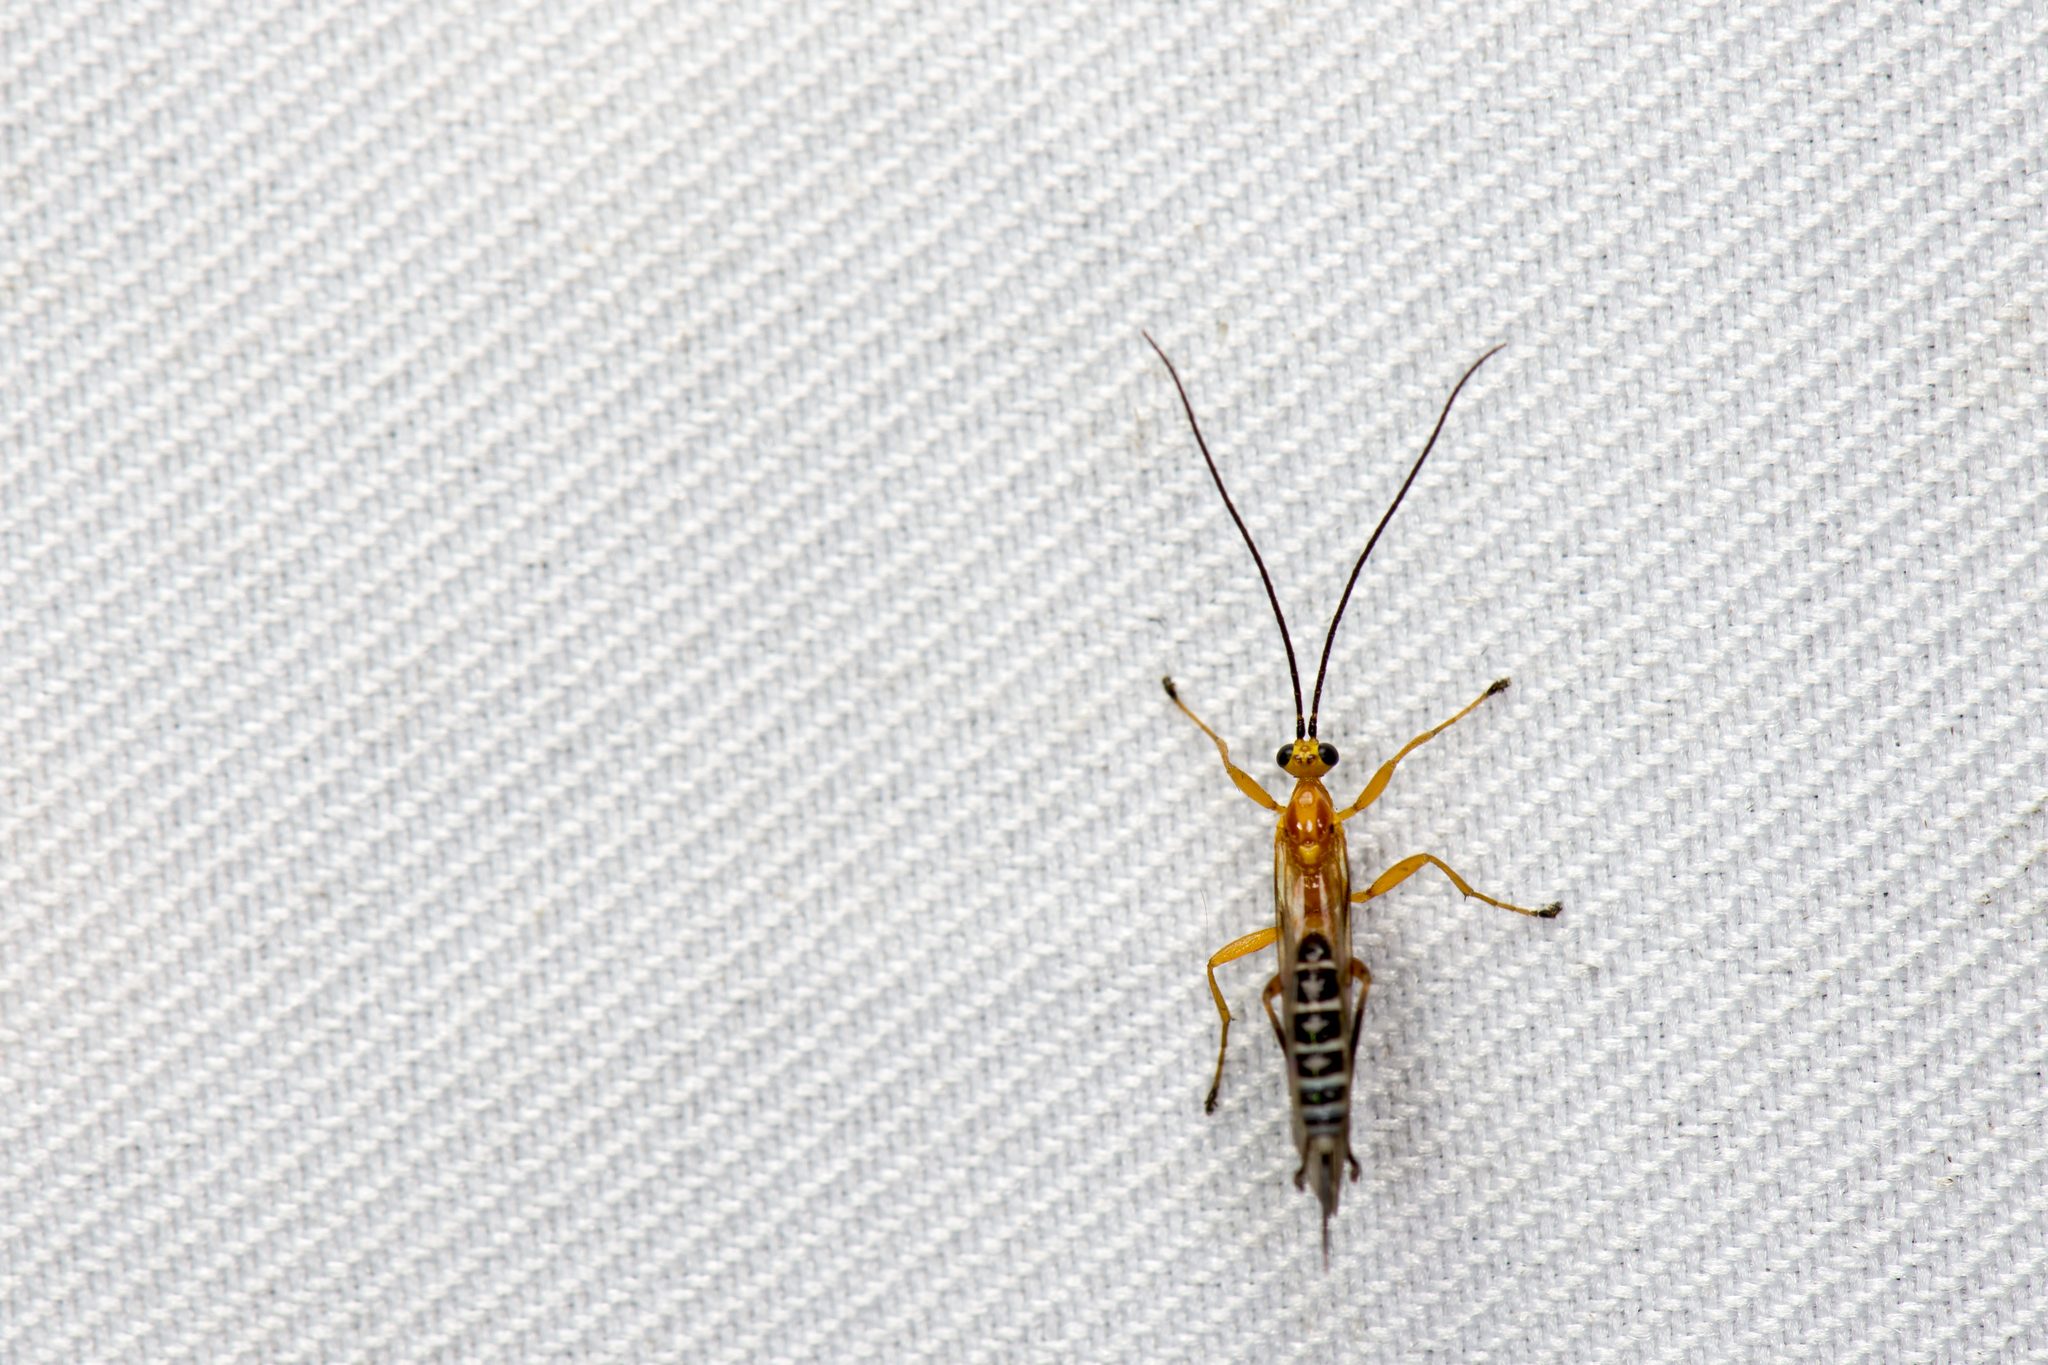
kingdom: Animalia
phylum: Arthropoda
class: Insecta
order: Hymenoptera
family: Ichneumonidae
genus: Eriostethus
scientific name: Eriostethus chinensis
